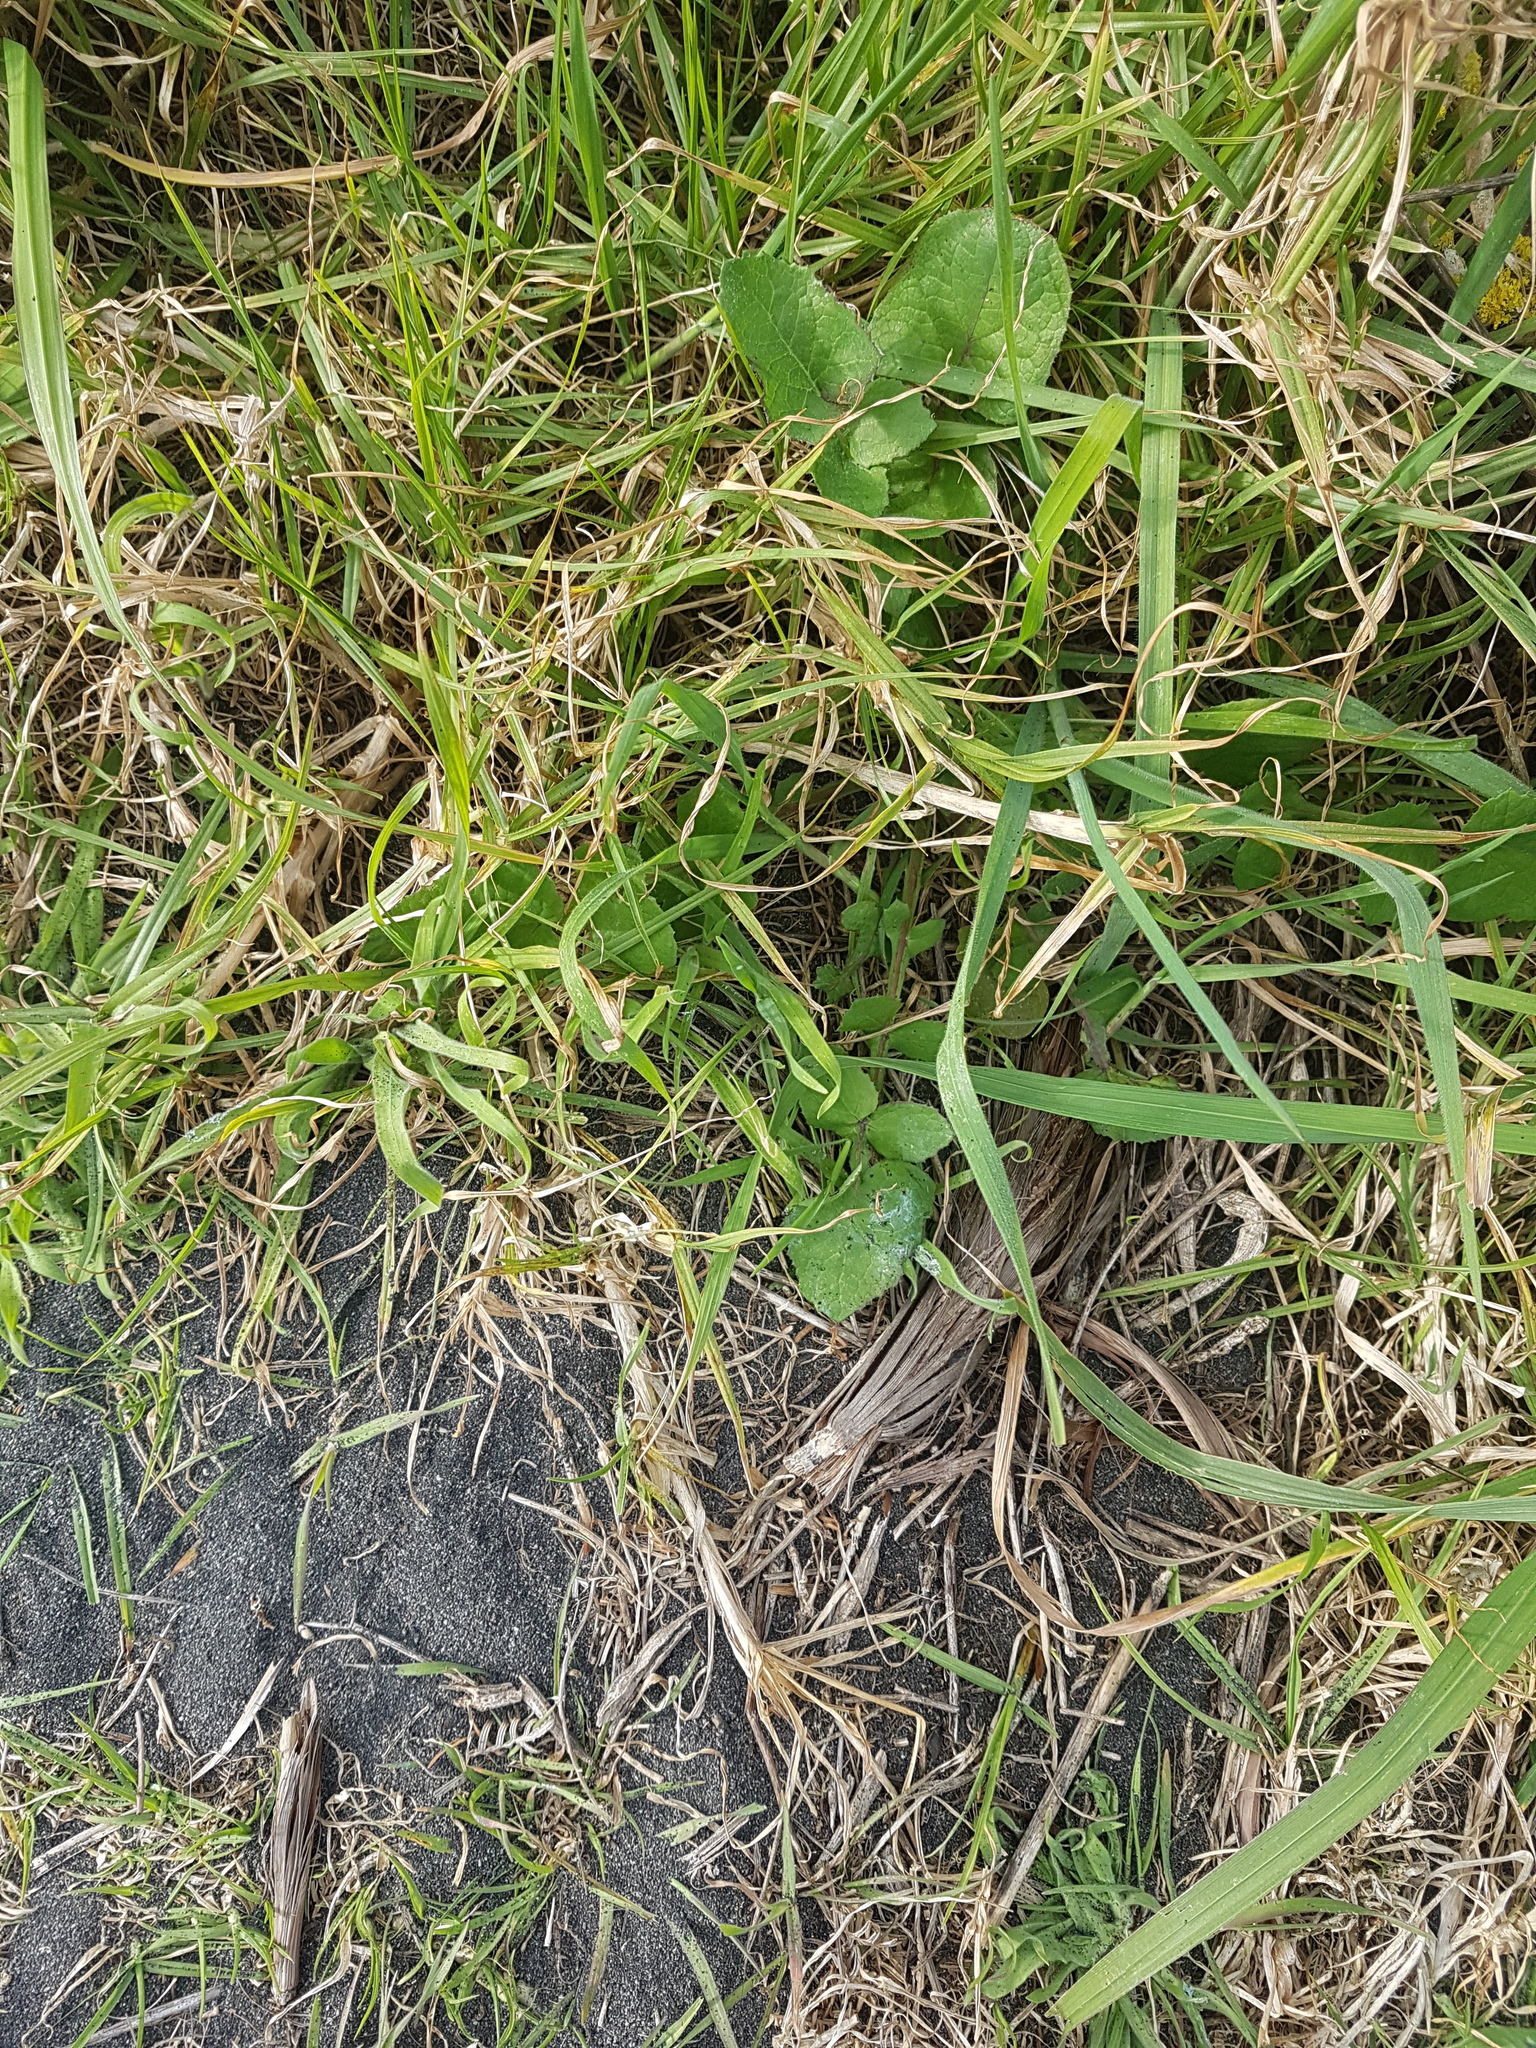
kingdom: Plantae
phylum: Tracheophyta
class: Liliopsida
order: Poales
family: Poaceae
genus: Cenchrus
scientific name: Cenchrus clandestinus
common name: Kikuyugrass
